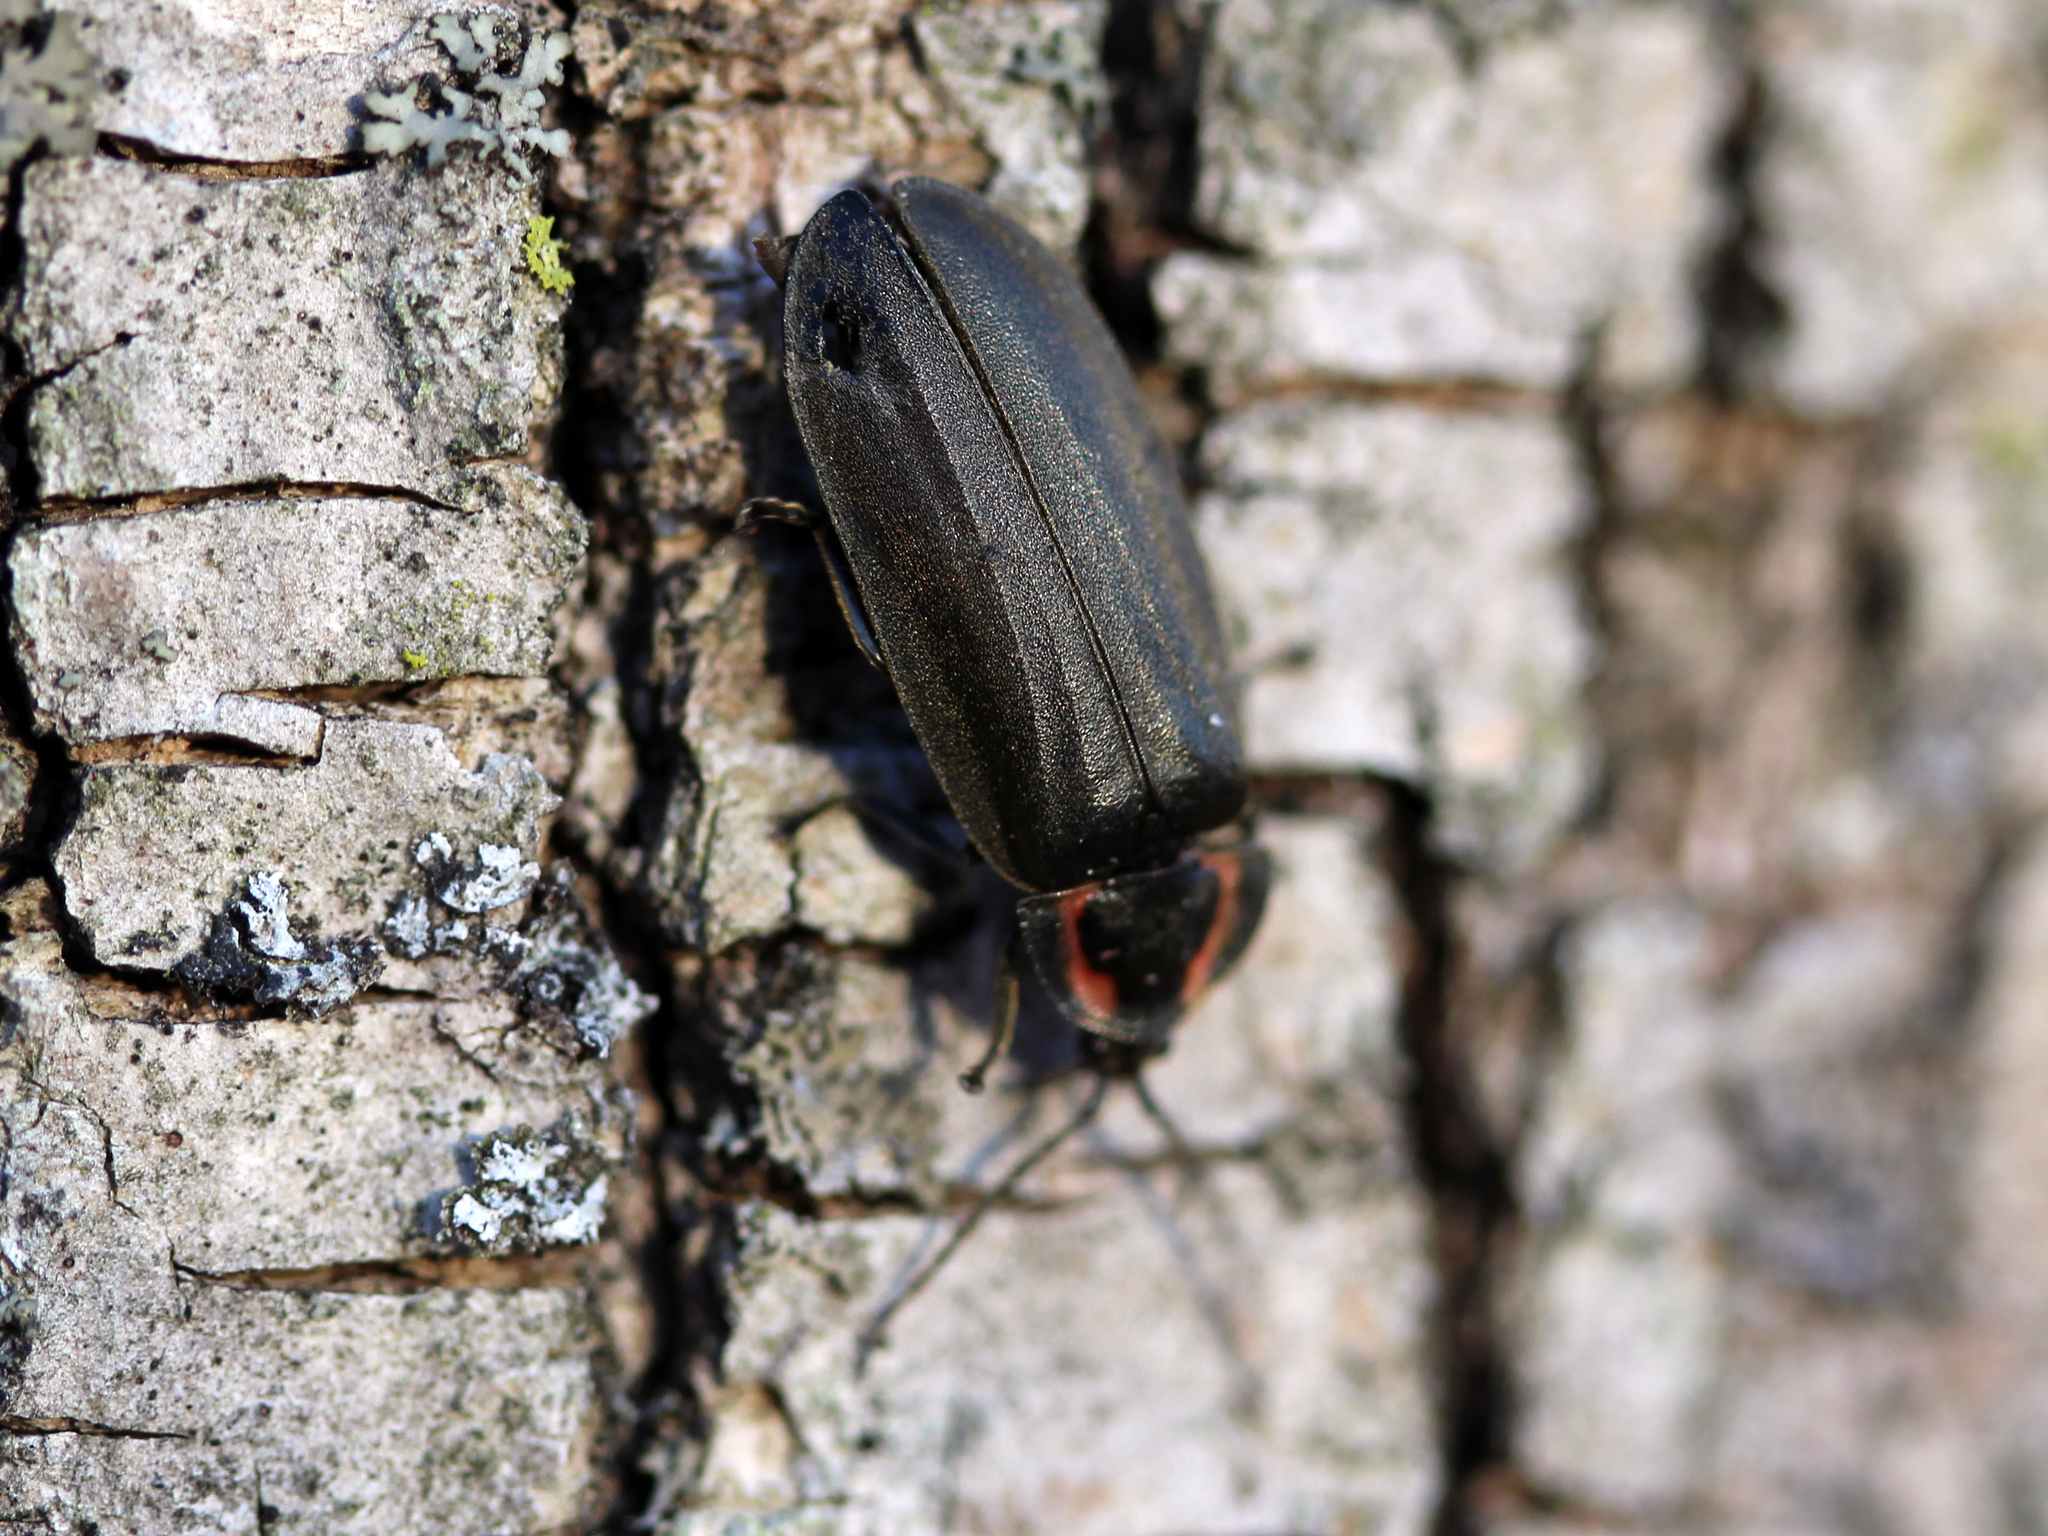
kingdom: Animalia
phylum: Arthropoda
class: Insecta
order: Coleoptera
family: Lampyridae
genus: Photinus
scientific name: Photinus corrusca
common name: Winter firefly
